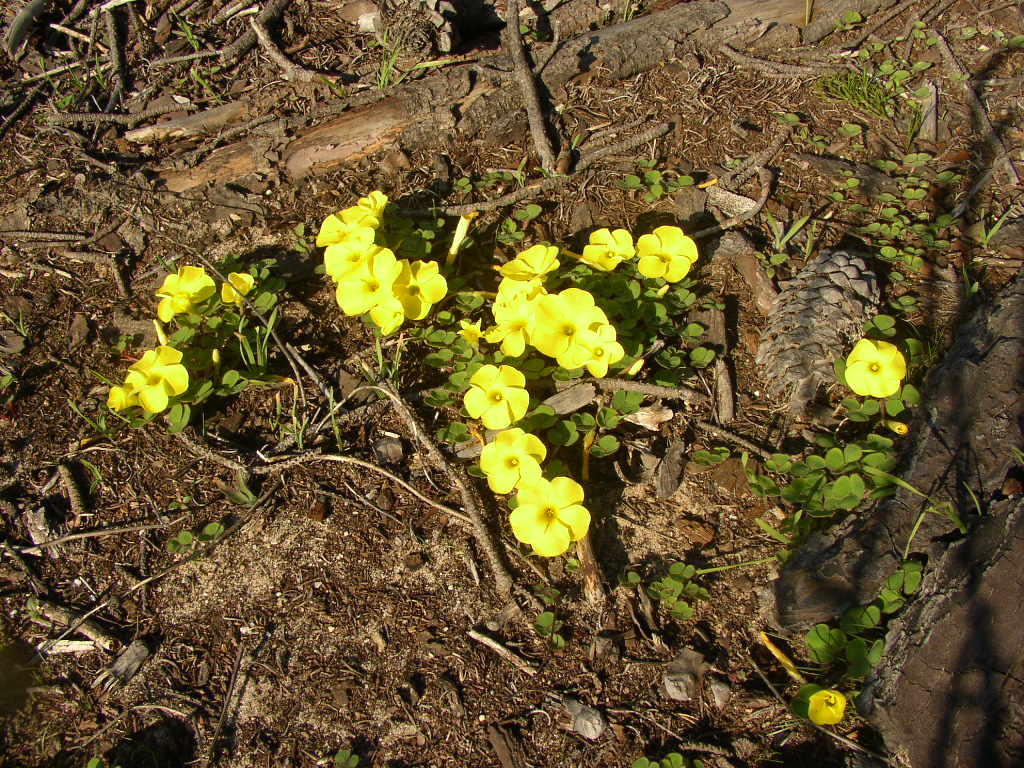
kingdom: Plantae
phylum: Tracheophyta
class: Magnoliopsida
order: Oxalidales
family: Oxalidaceae
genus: Oxalis
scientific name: Oxalis luteola
